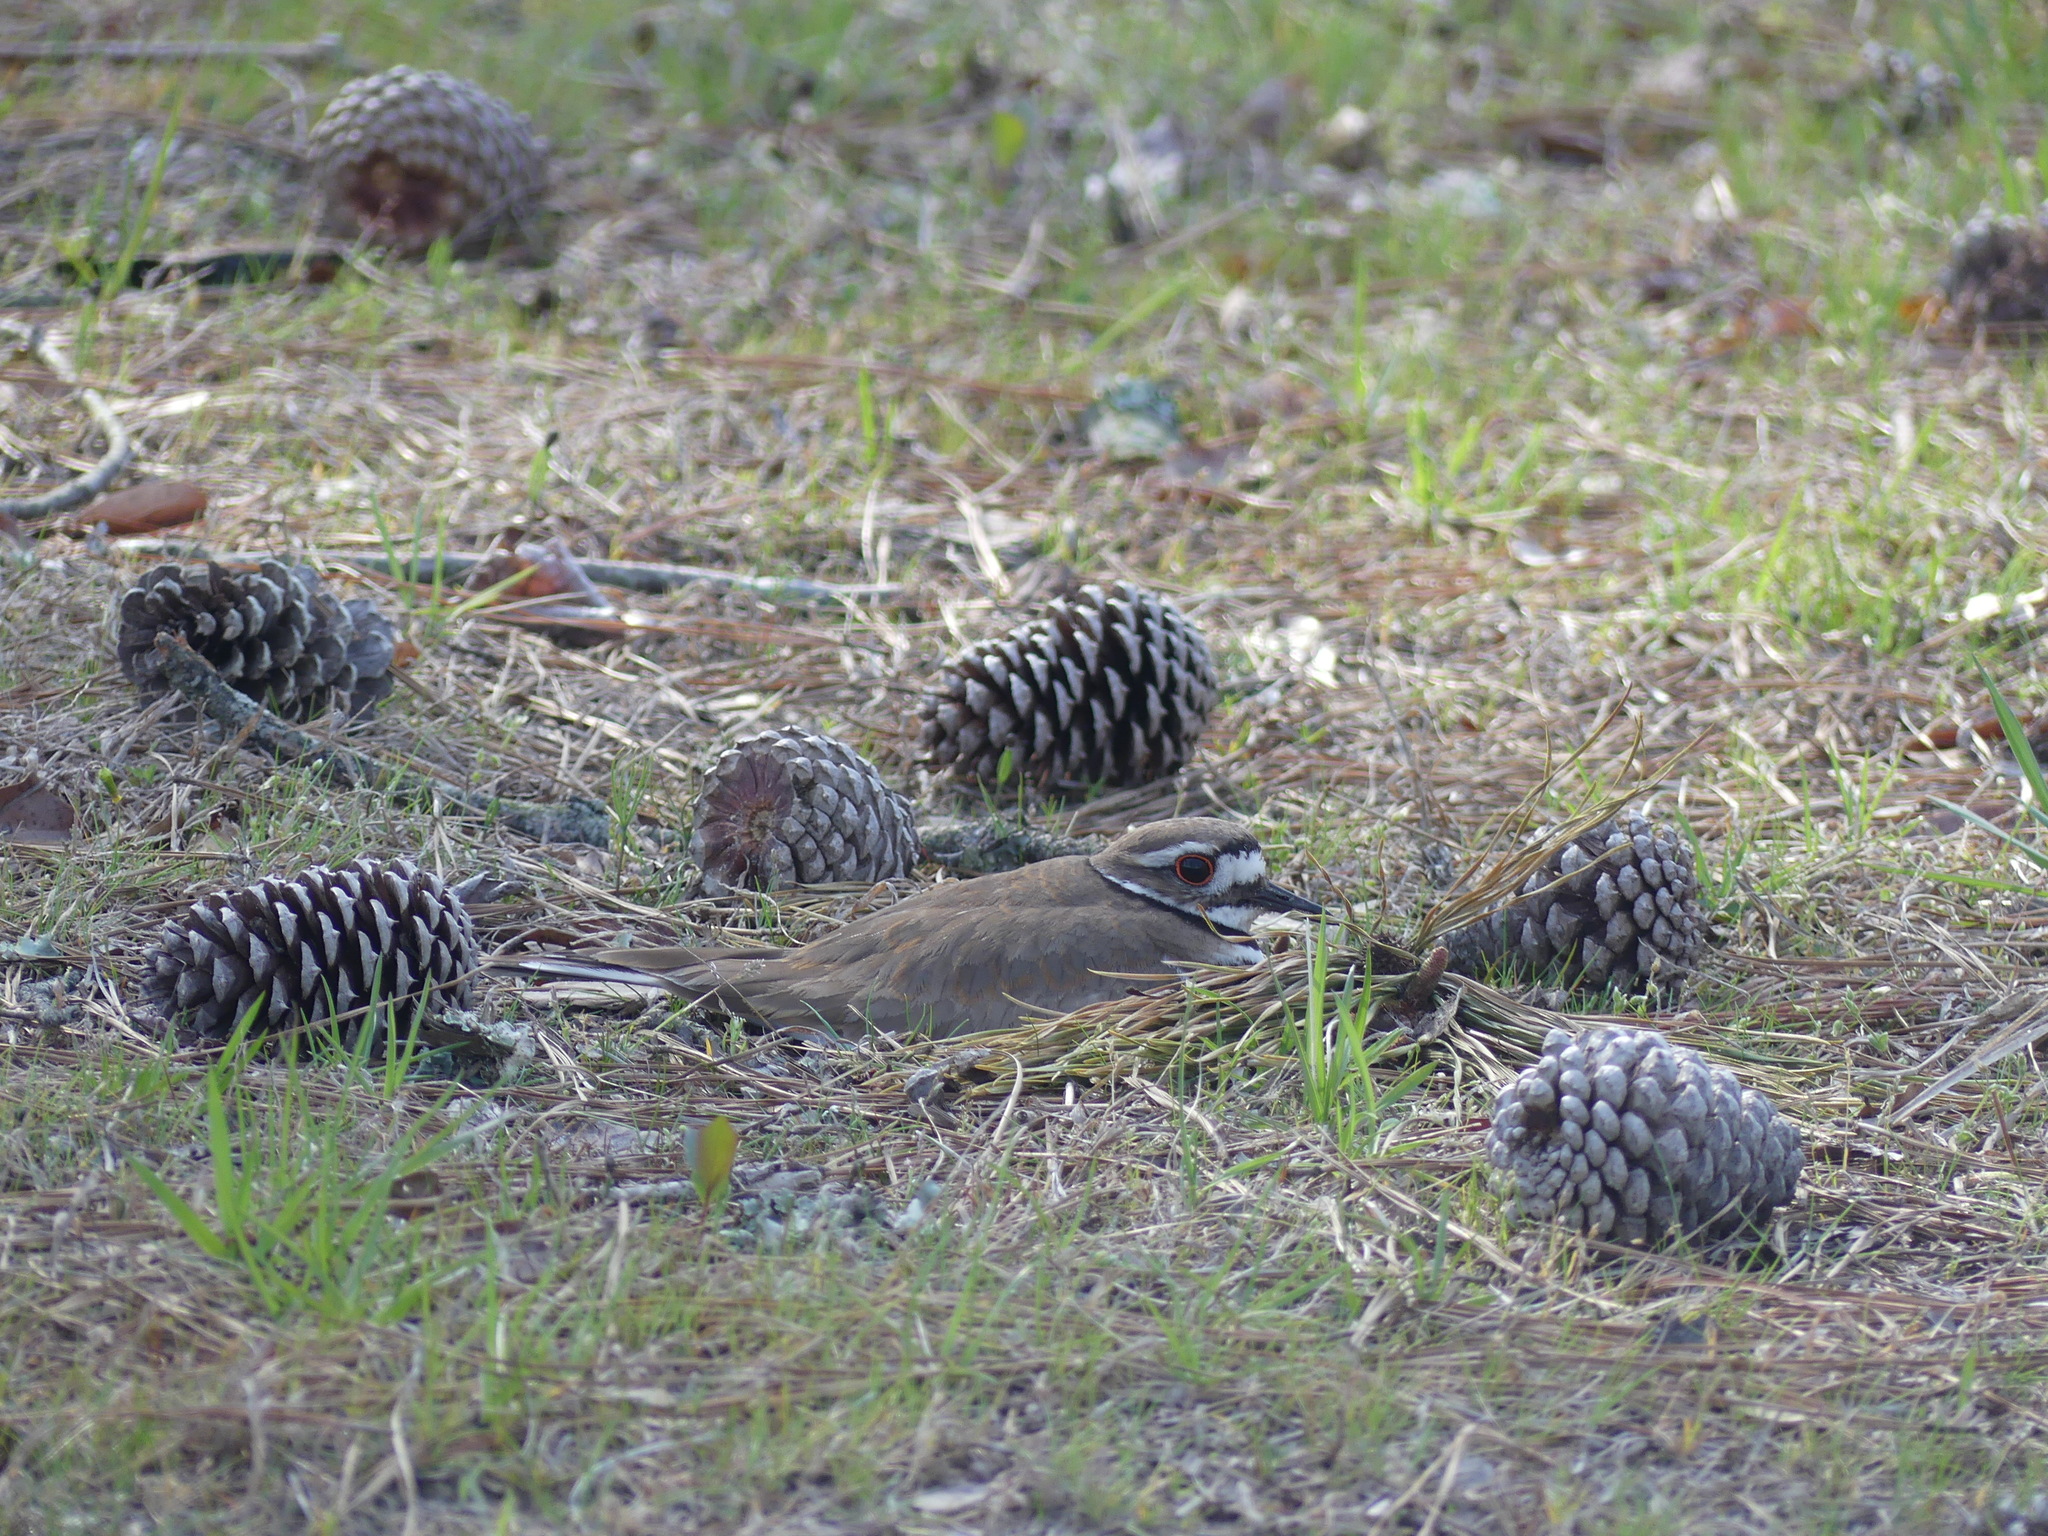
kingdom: Animalia
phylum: Chordata
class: Aves
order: Charadriiformes
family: Charadriidae
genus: Charadrius
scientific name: Charadrius vociferus
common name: Killdeer
